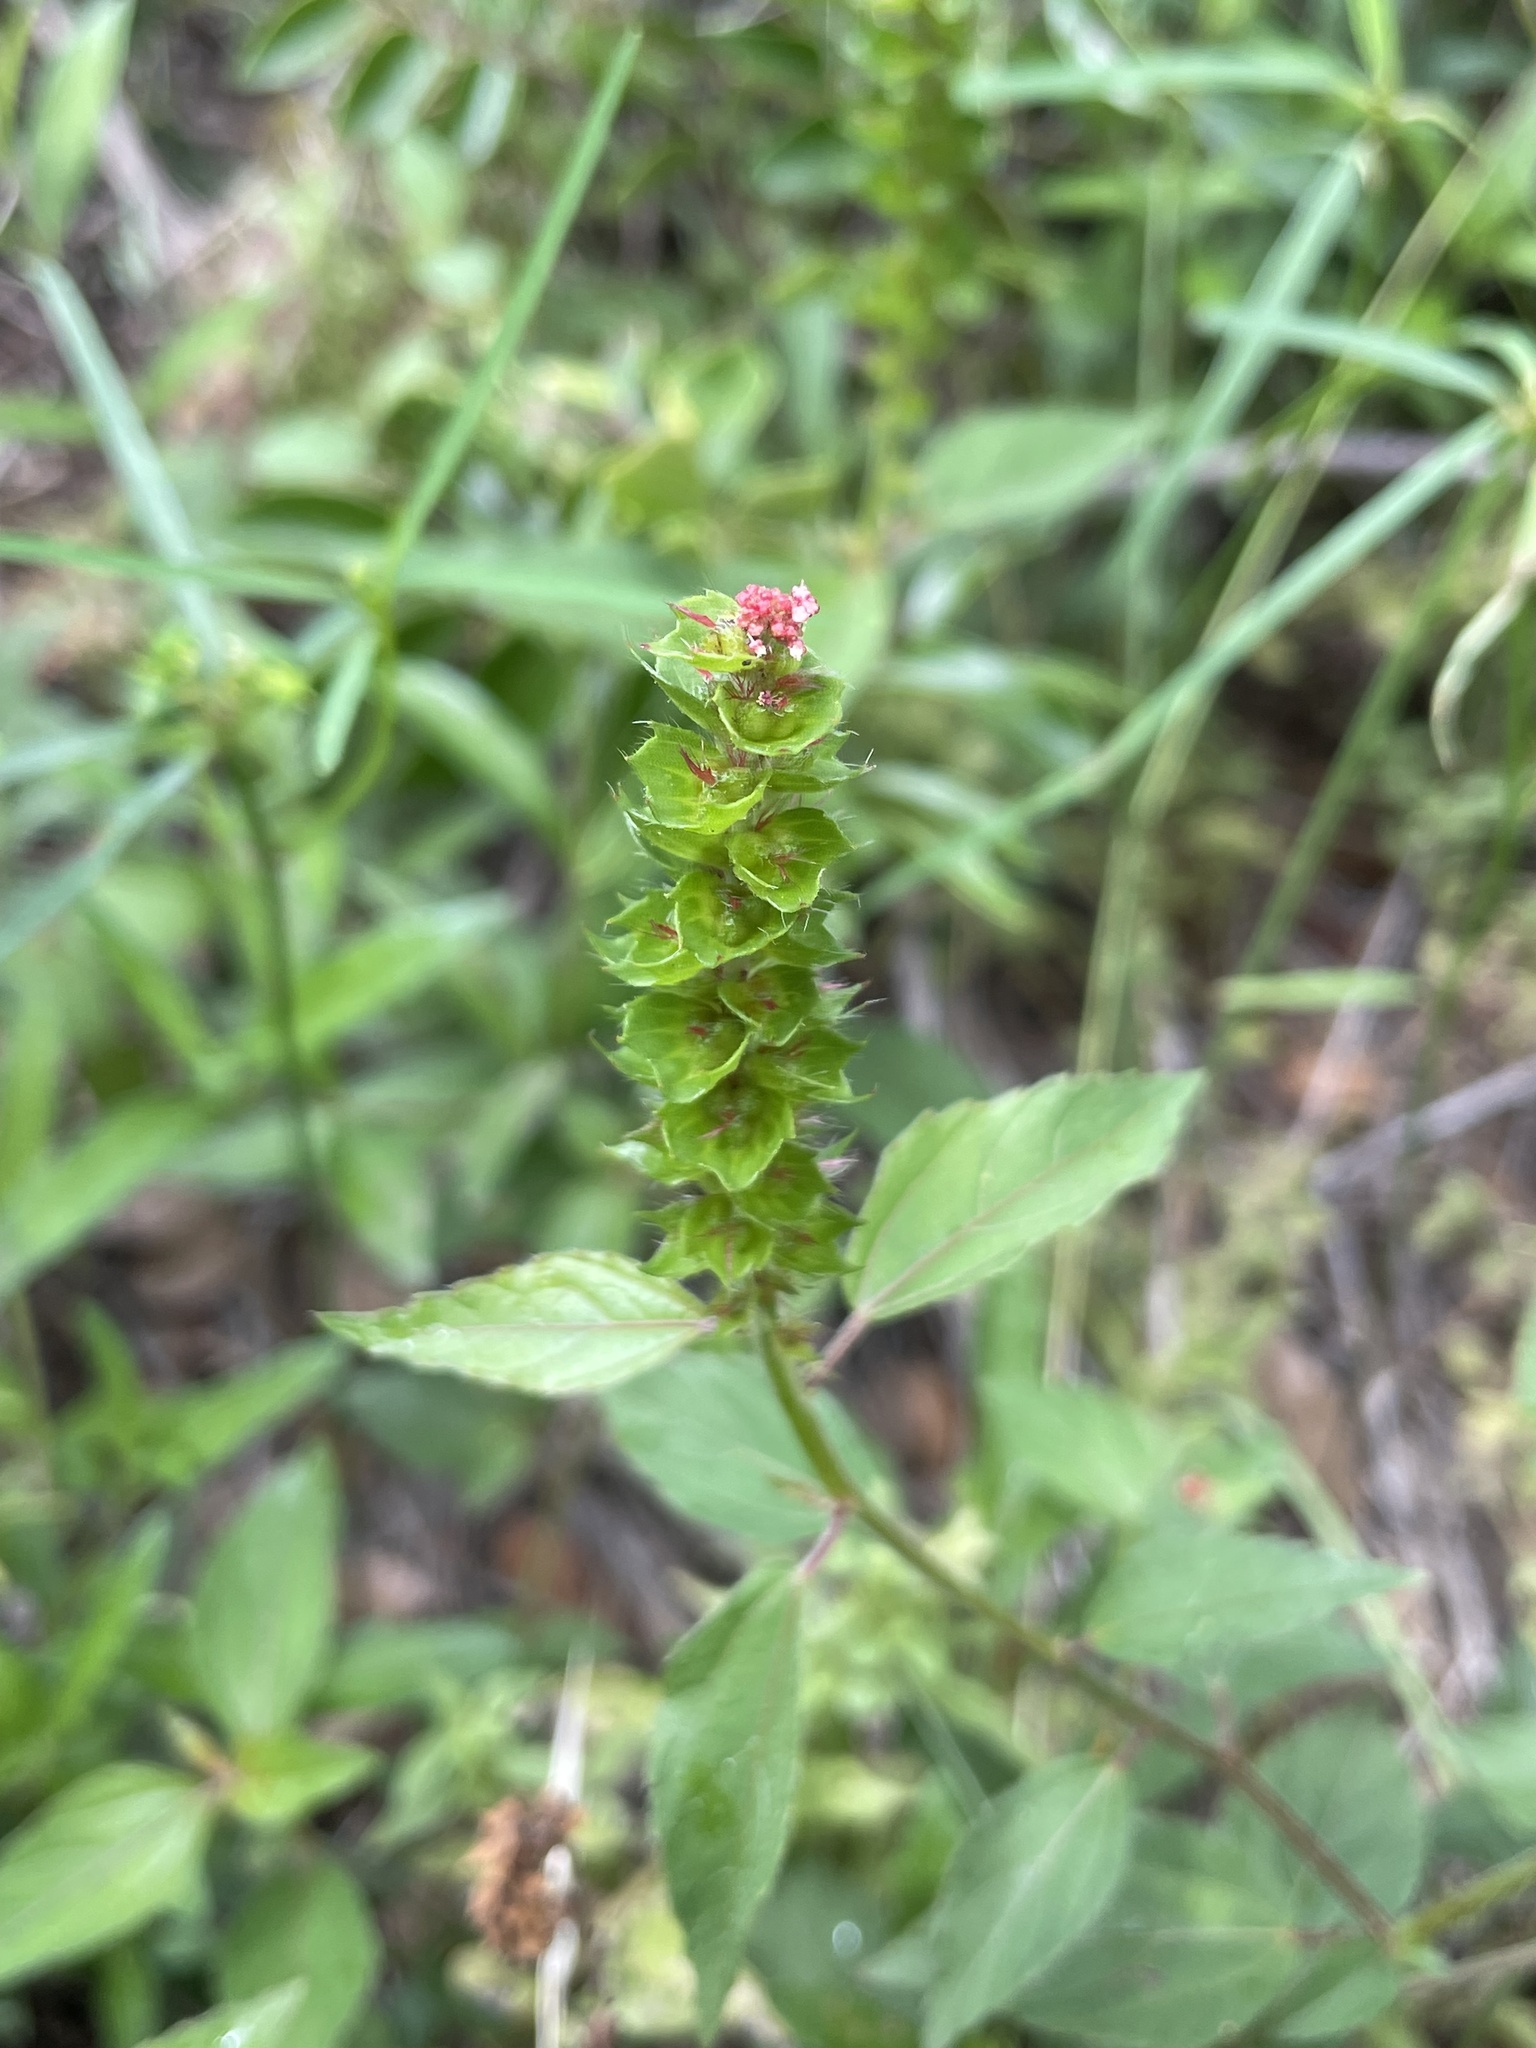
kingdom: Plantae
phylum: Tracheophyta
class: Magnoliopsida
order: Malpighiales
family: Euphorbiaceae
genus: Acalypha
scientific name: Acalypha phleoides
